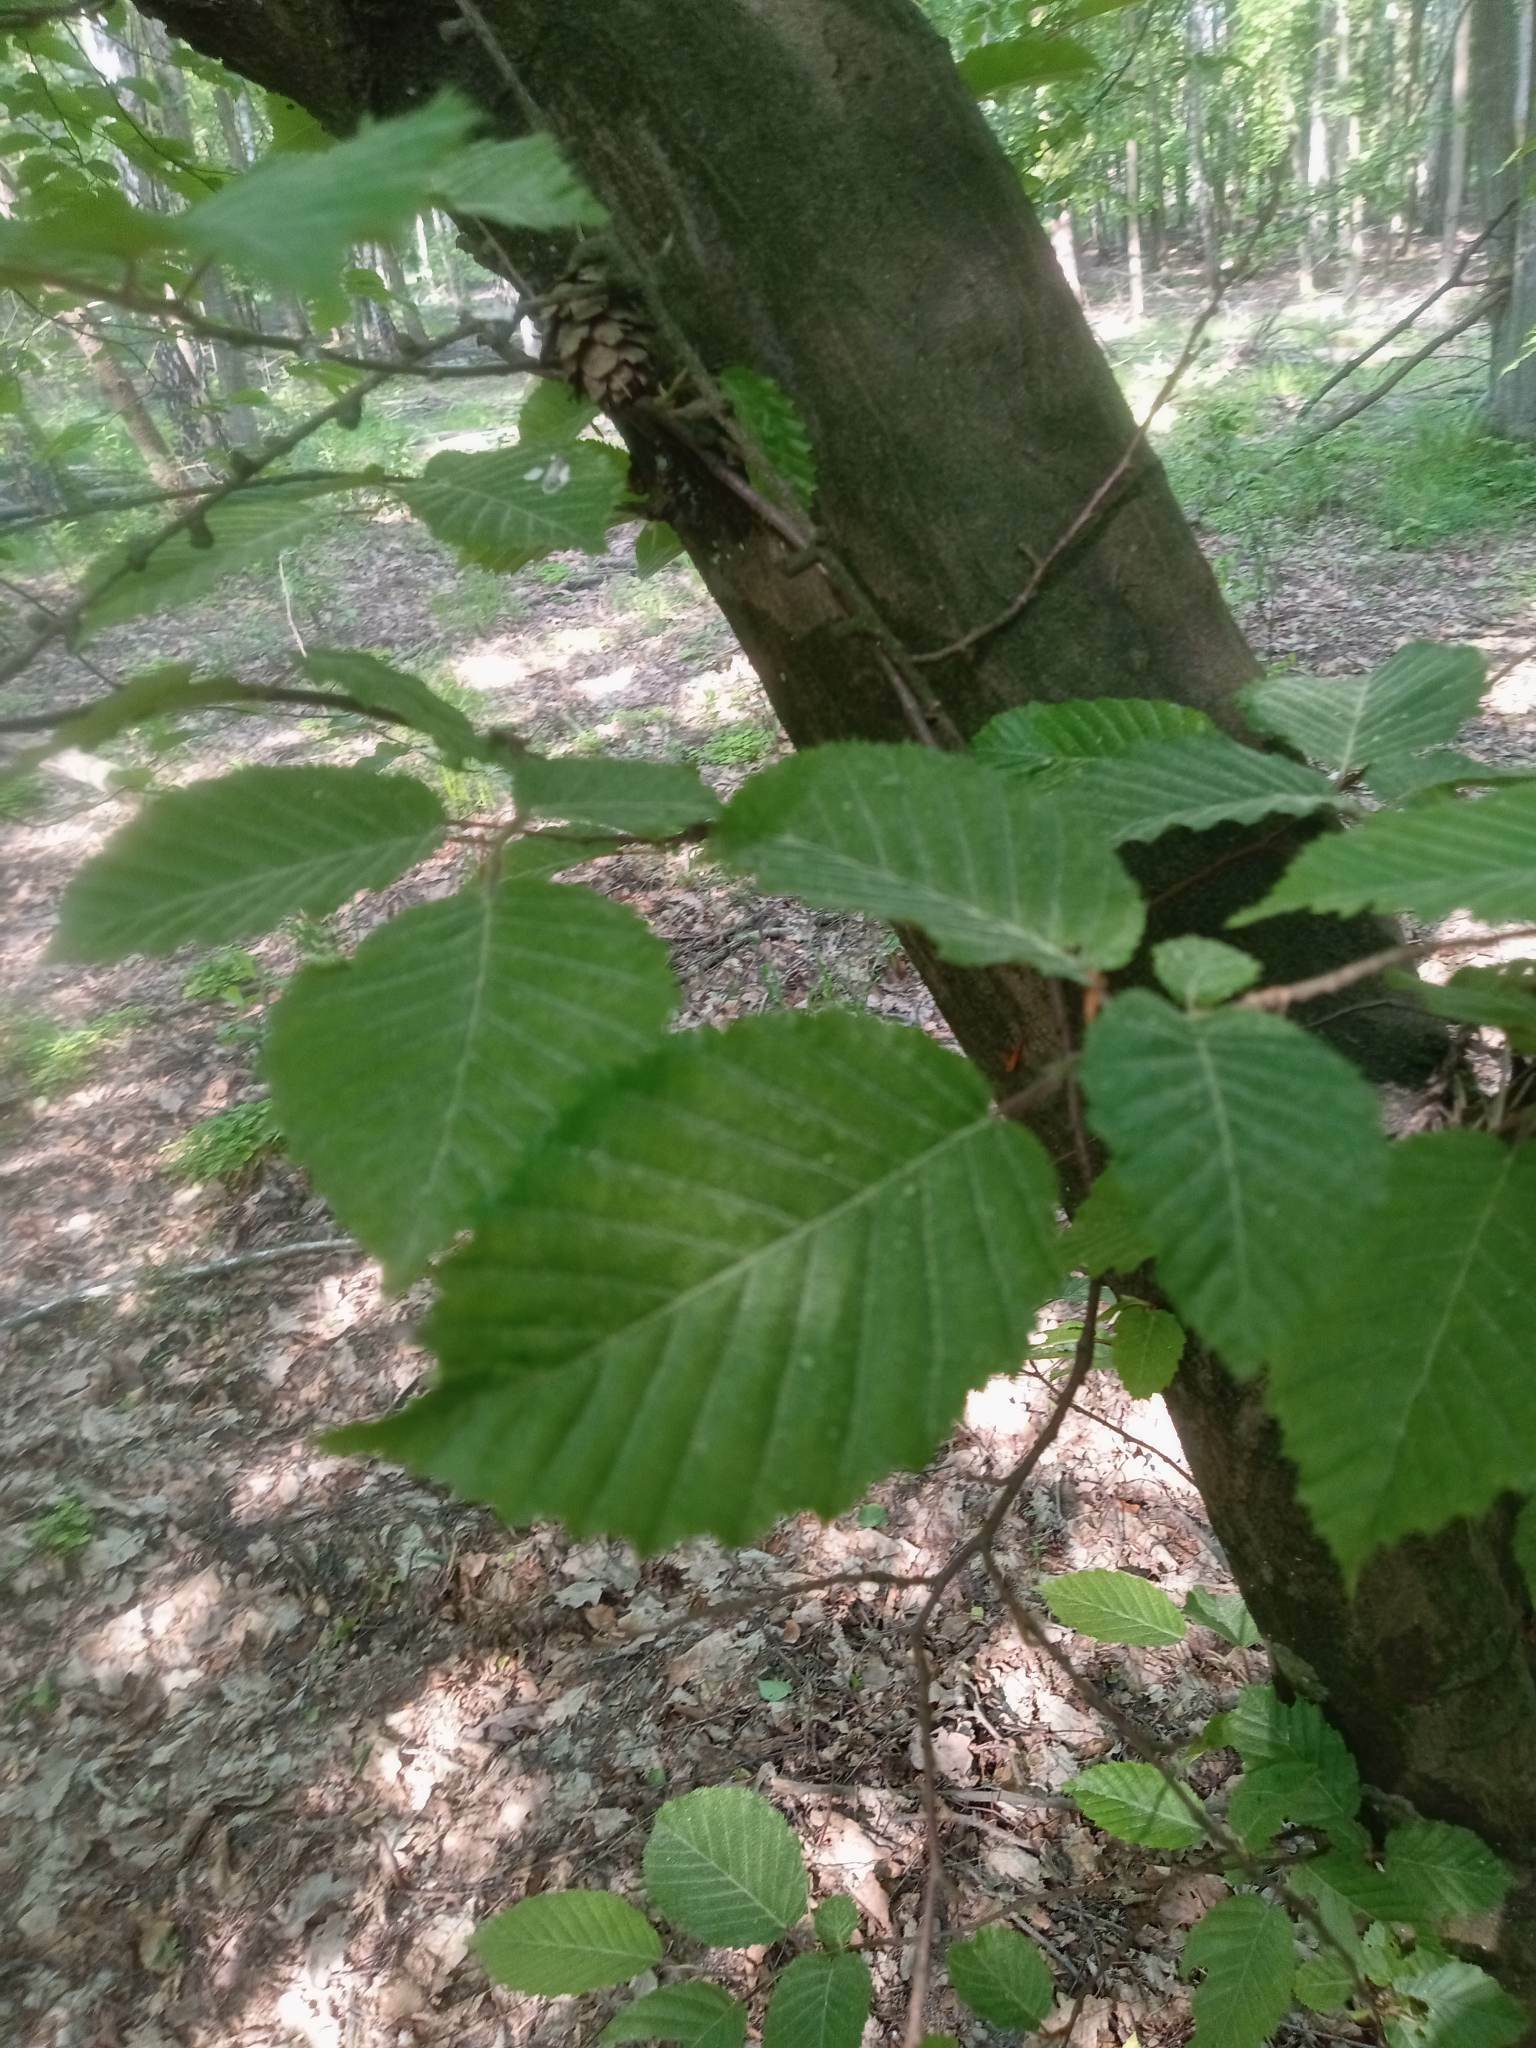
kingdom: Plantae
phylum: Tracheophyta
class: Magnoliopsida
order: Fagales
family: Betulaceae
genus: Carpinus
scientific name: Carpinus betulus
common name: Hornbeam
